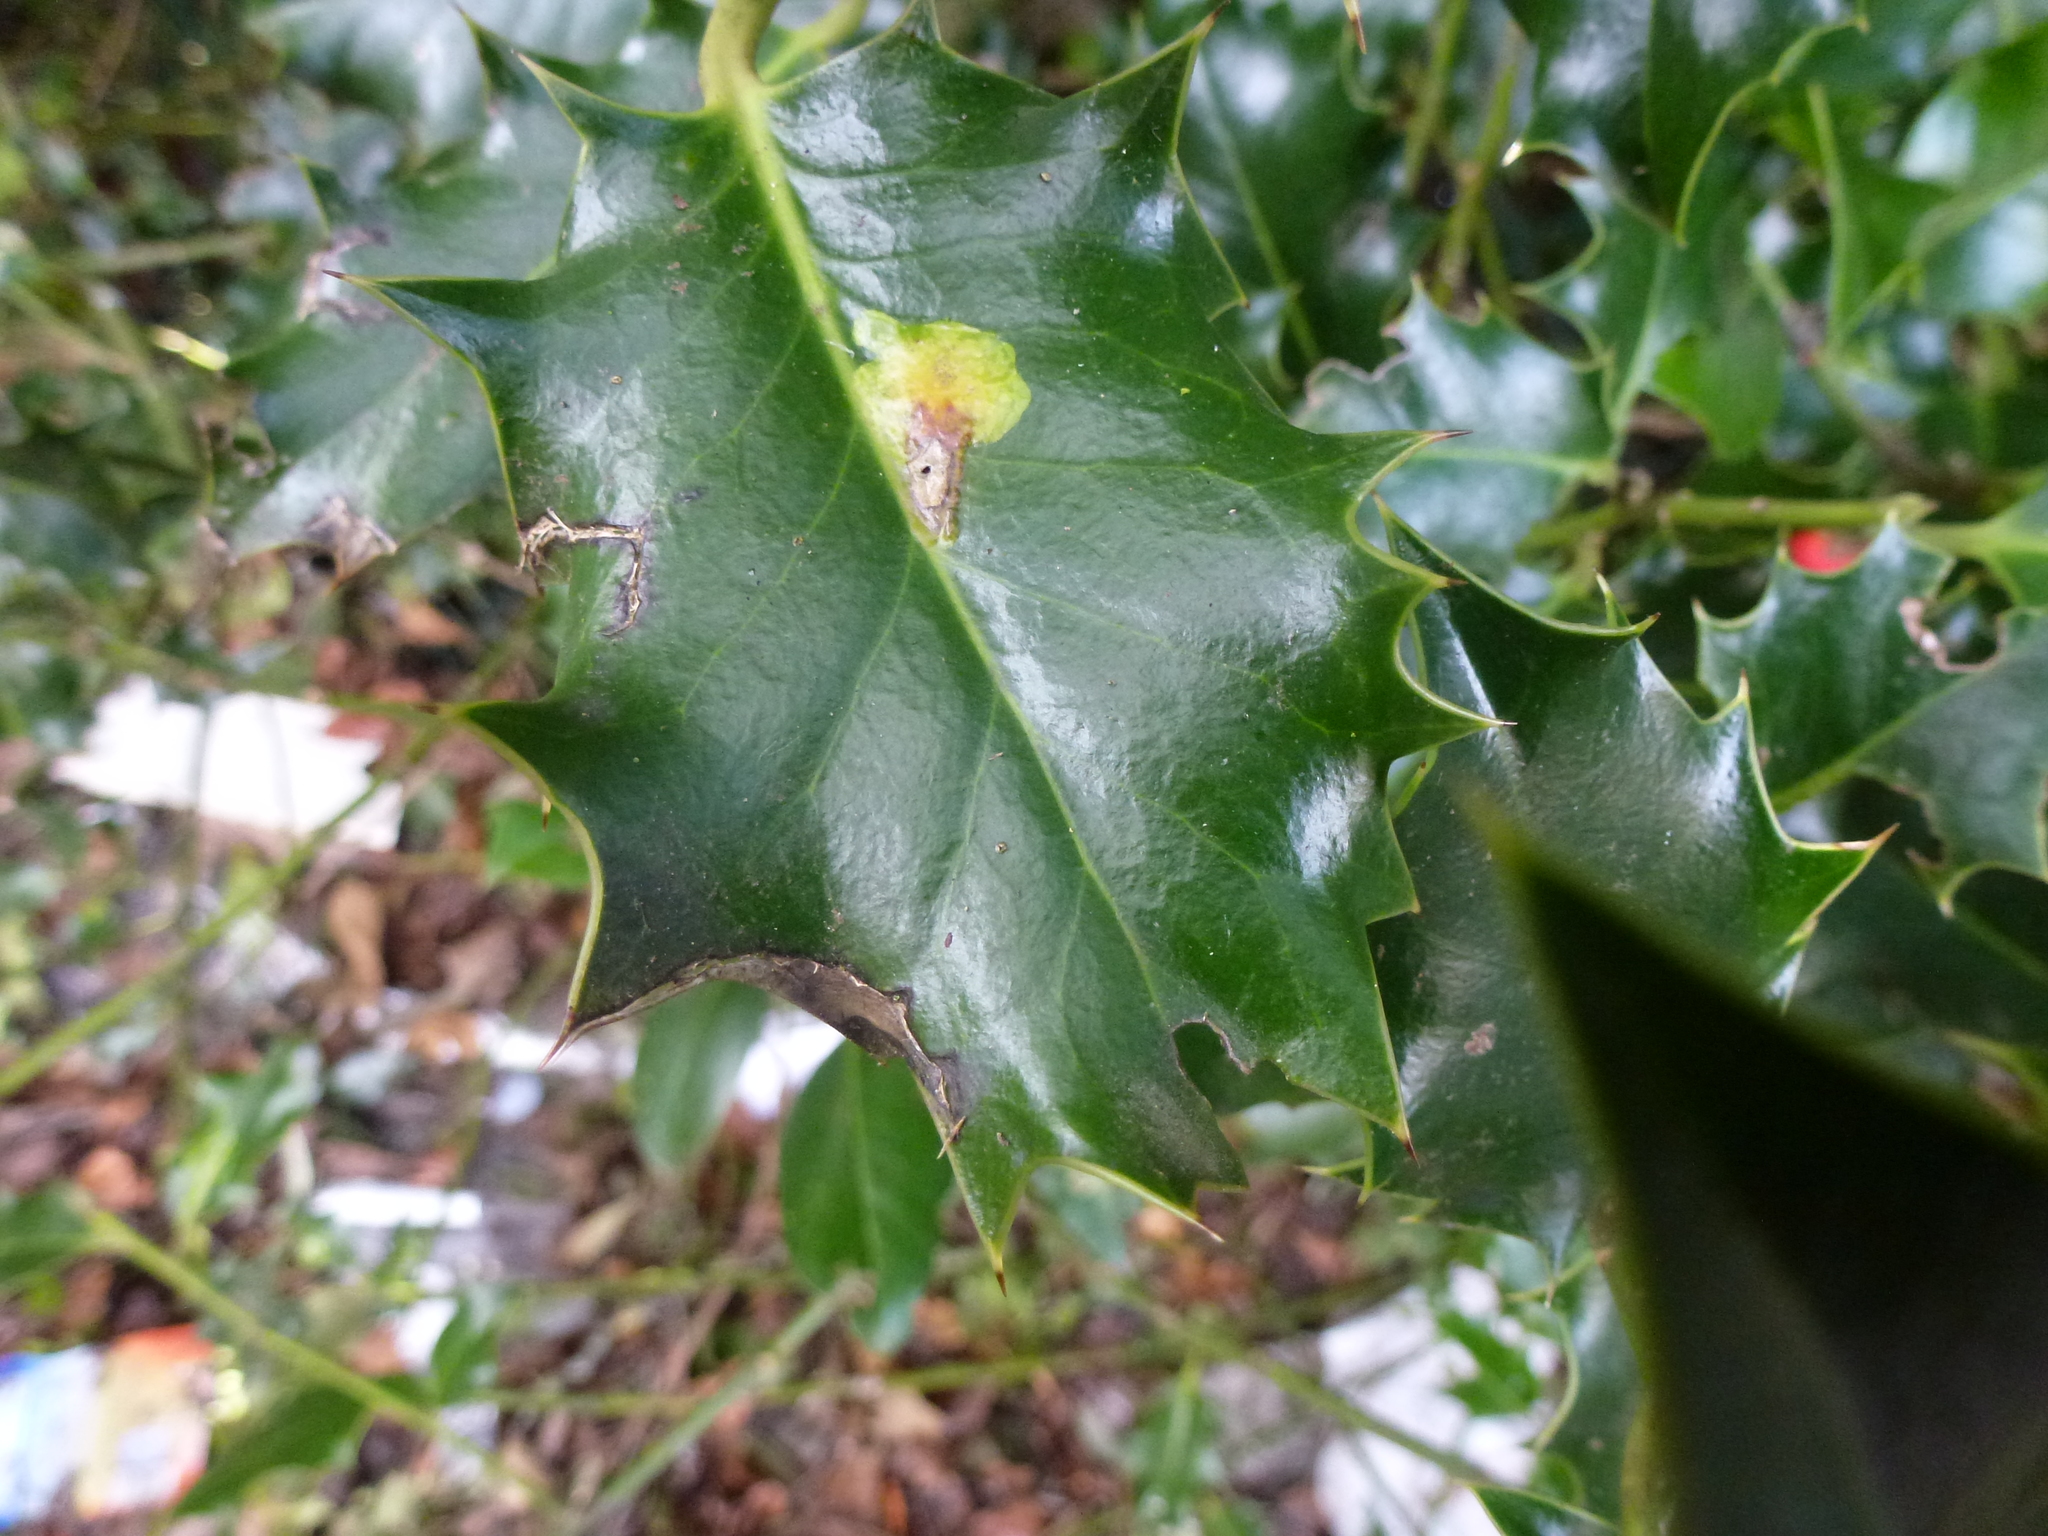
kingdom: Animalia
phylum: Arthropoda
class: Insecta
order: Diptera
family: Agromyzidae
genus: Phytomyza
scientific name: Phytomyza ilicis
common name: Holly leafminer
